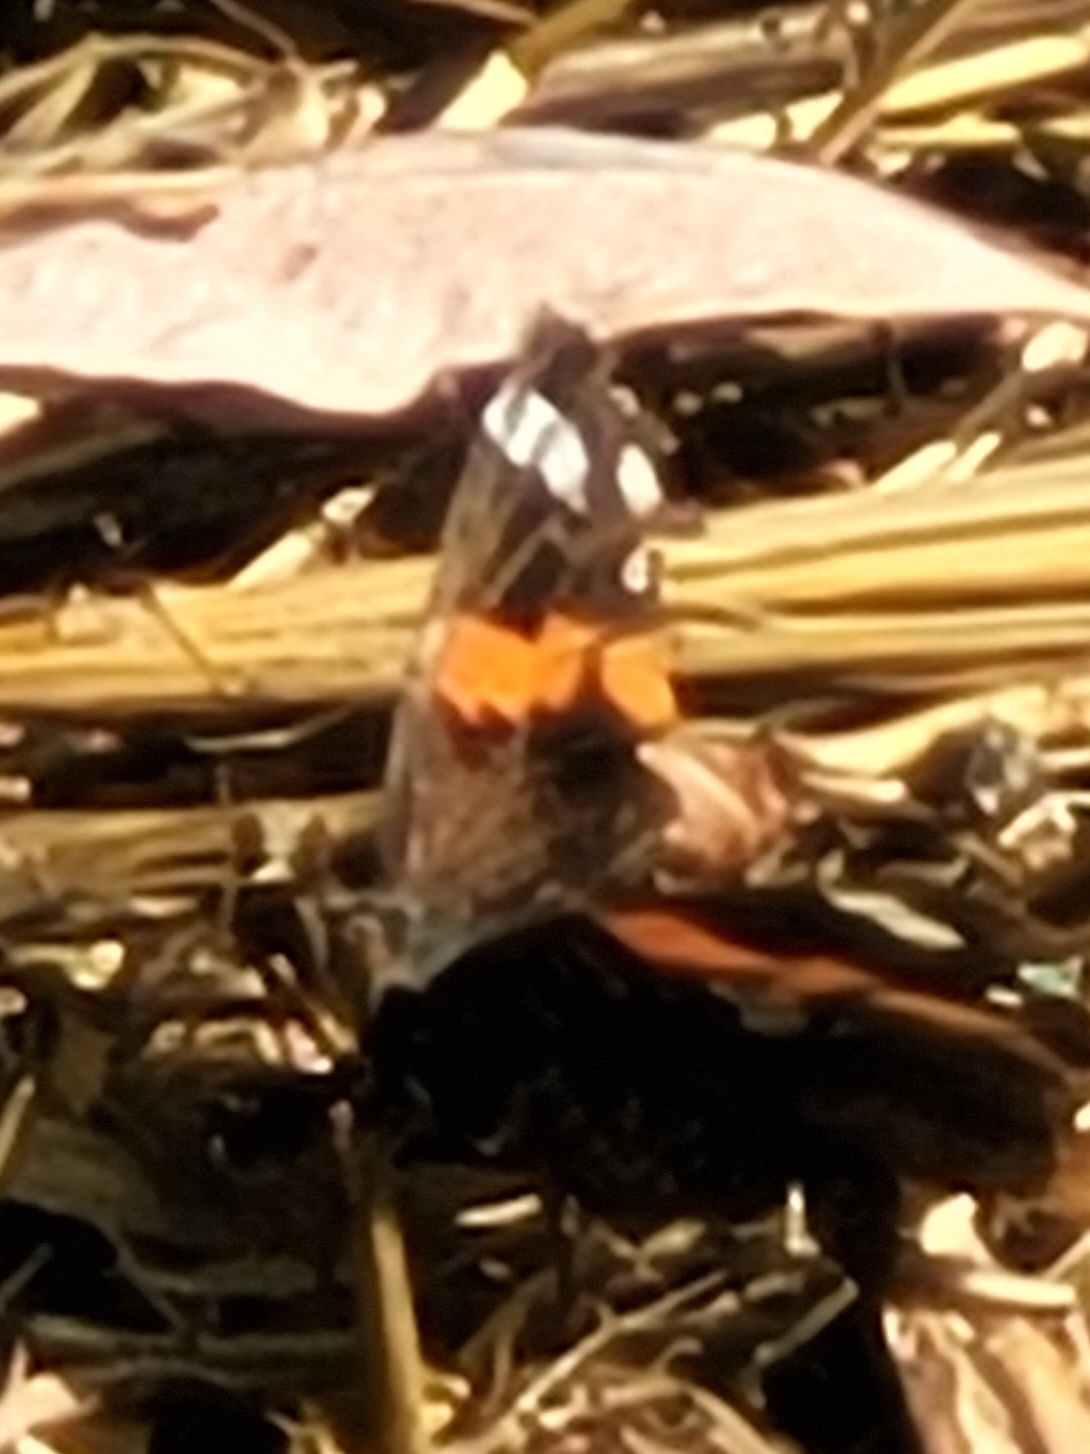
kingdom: Animalia
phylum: Arthropoda
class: Insecta
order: Lepidoptera
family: Nymphalidae
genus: Vanessa
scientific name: Vanessa atalanta
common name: Red admiral
